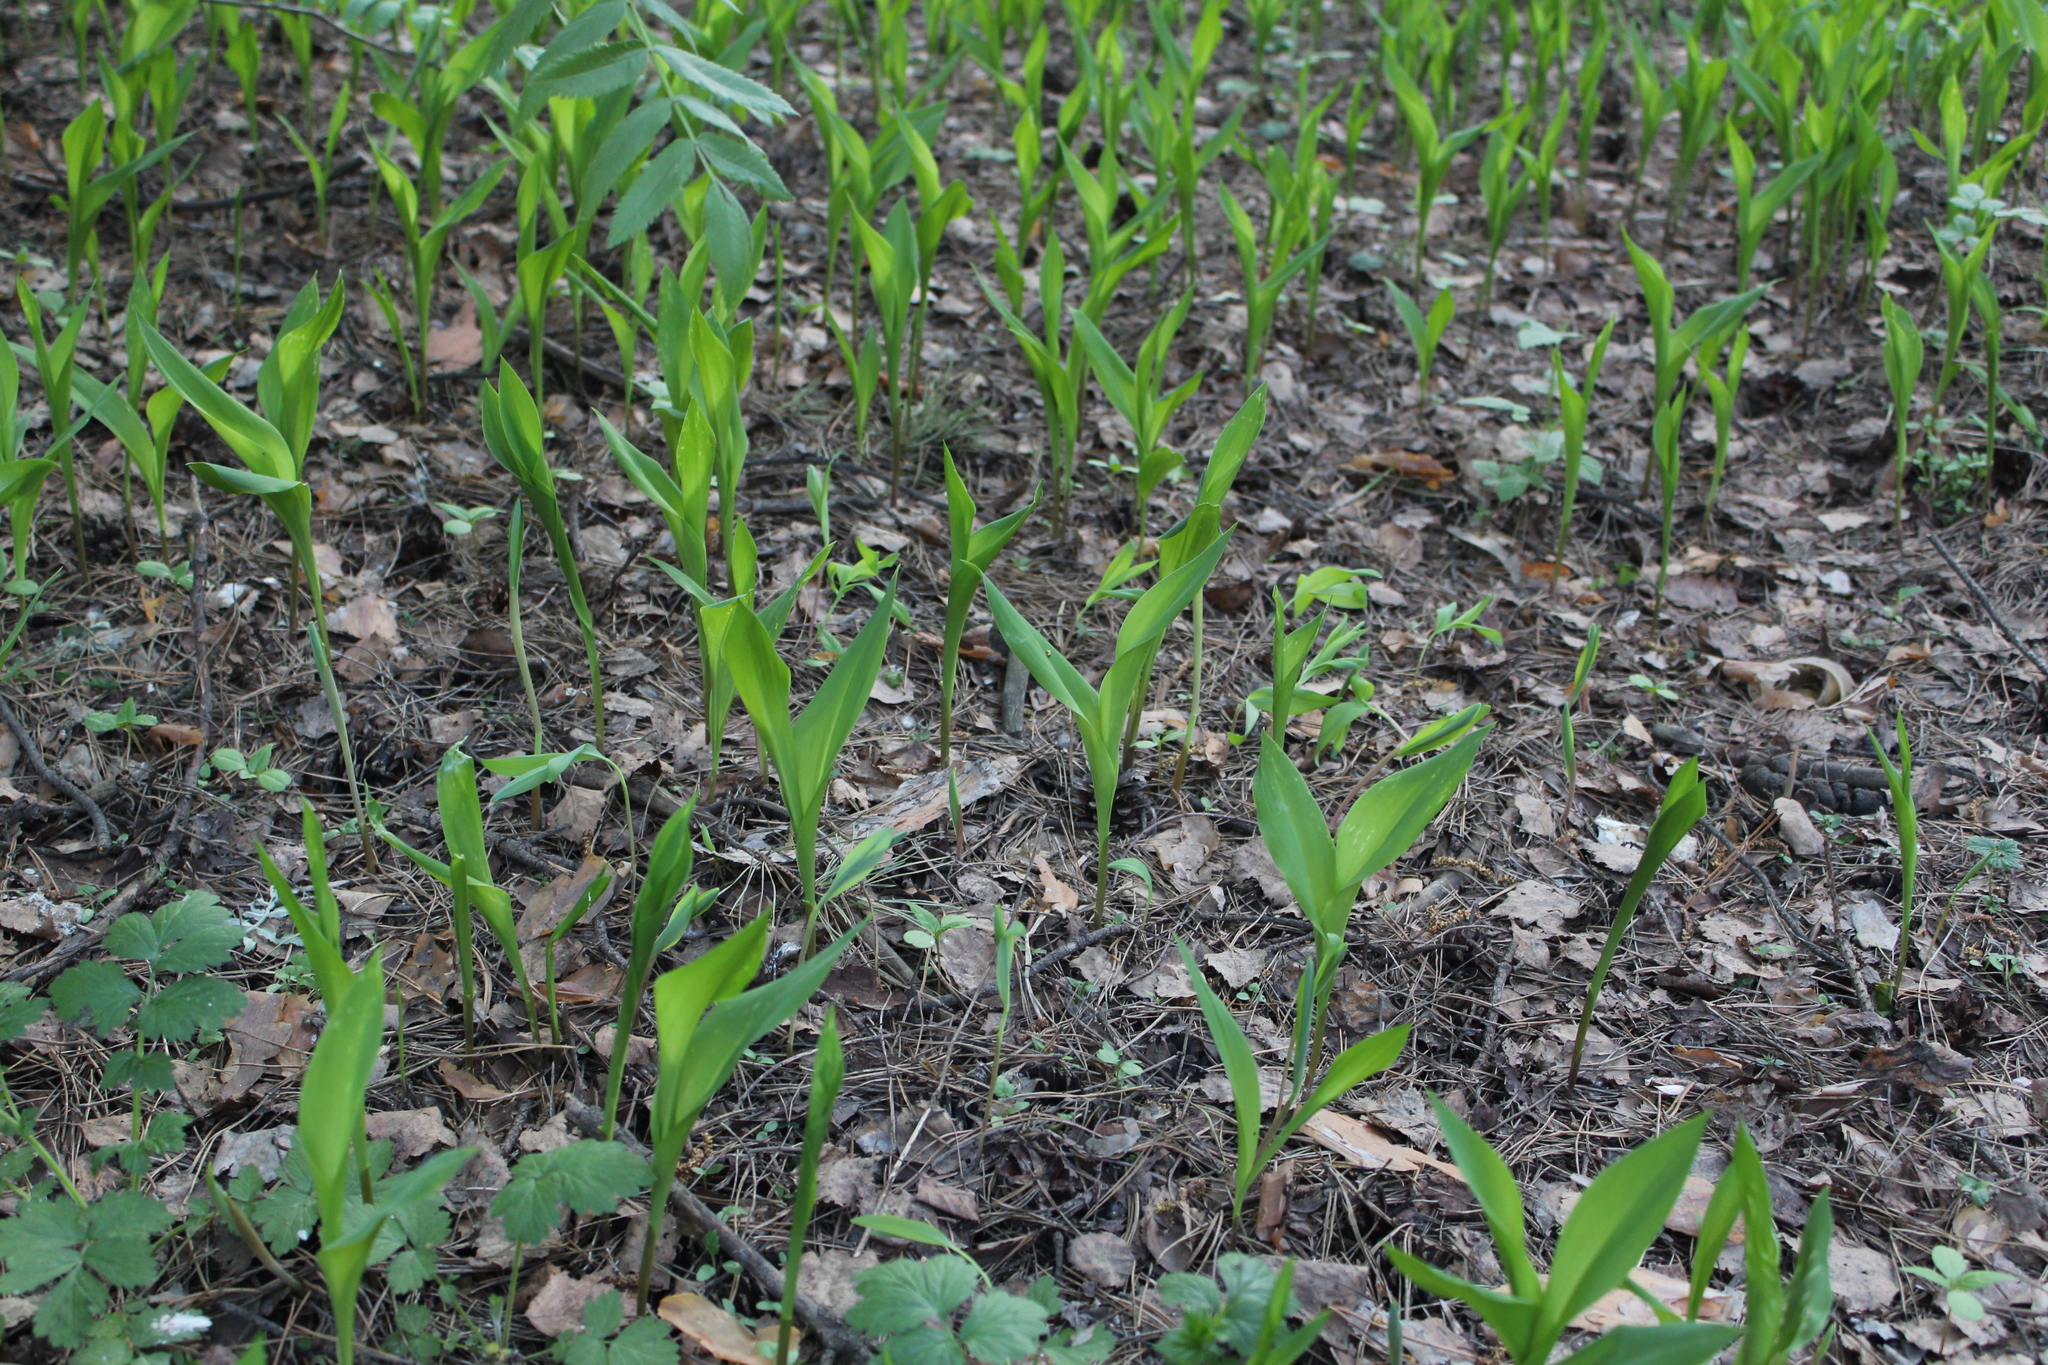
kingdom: Plantae
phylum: Tracheophyta
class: Liliopsida
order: Asparagales
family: Asparagaceae
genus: Convallaria
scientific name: Convallaria majalis
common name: Lily-of-the-valley
